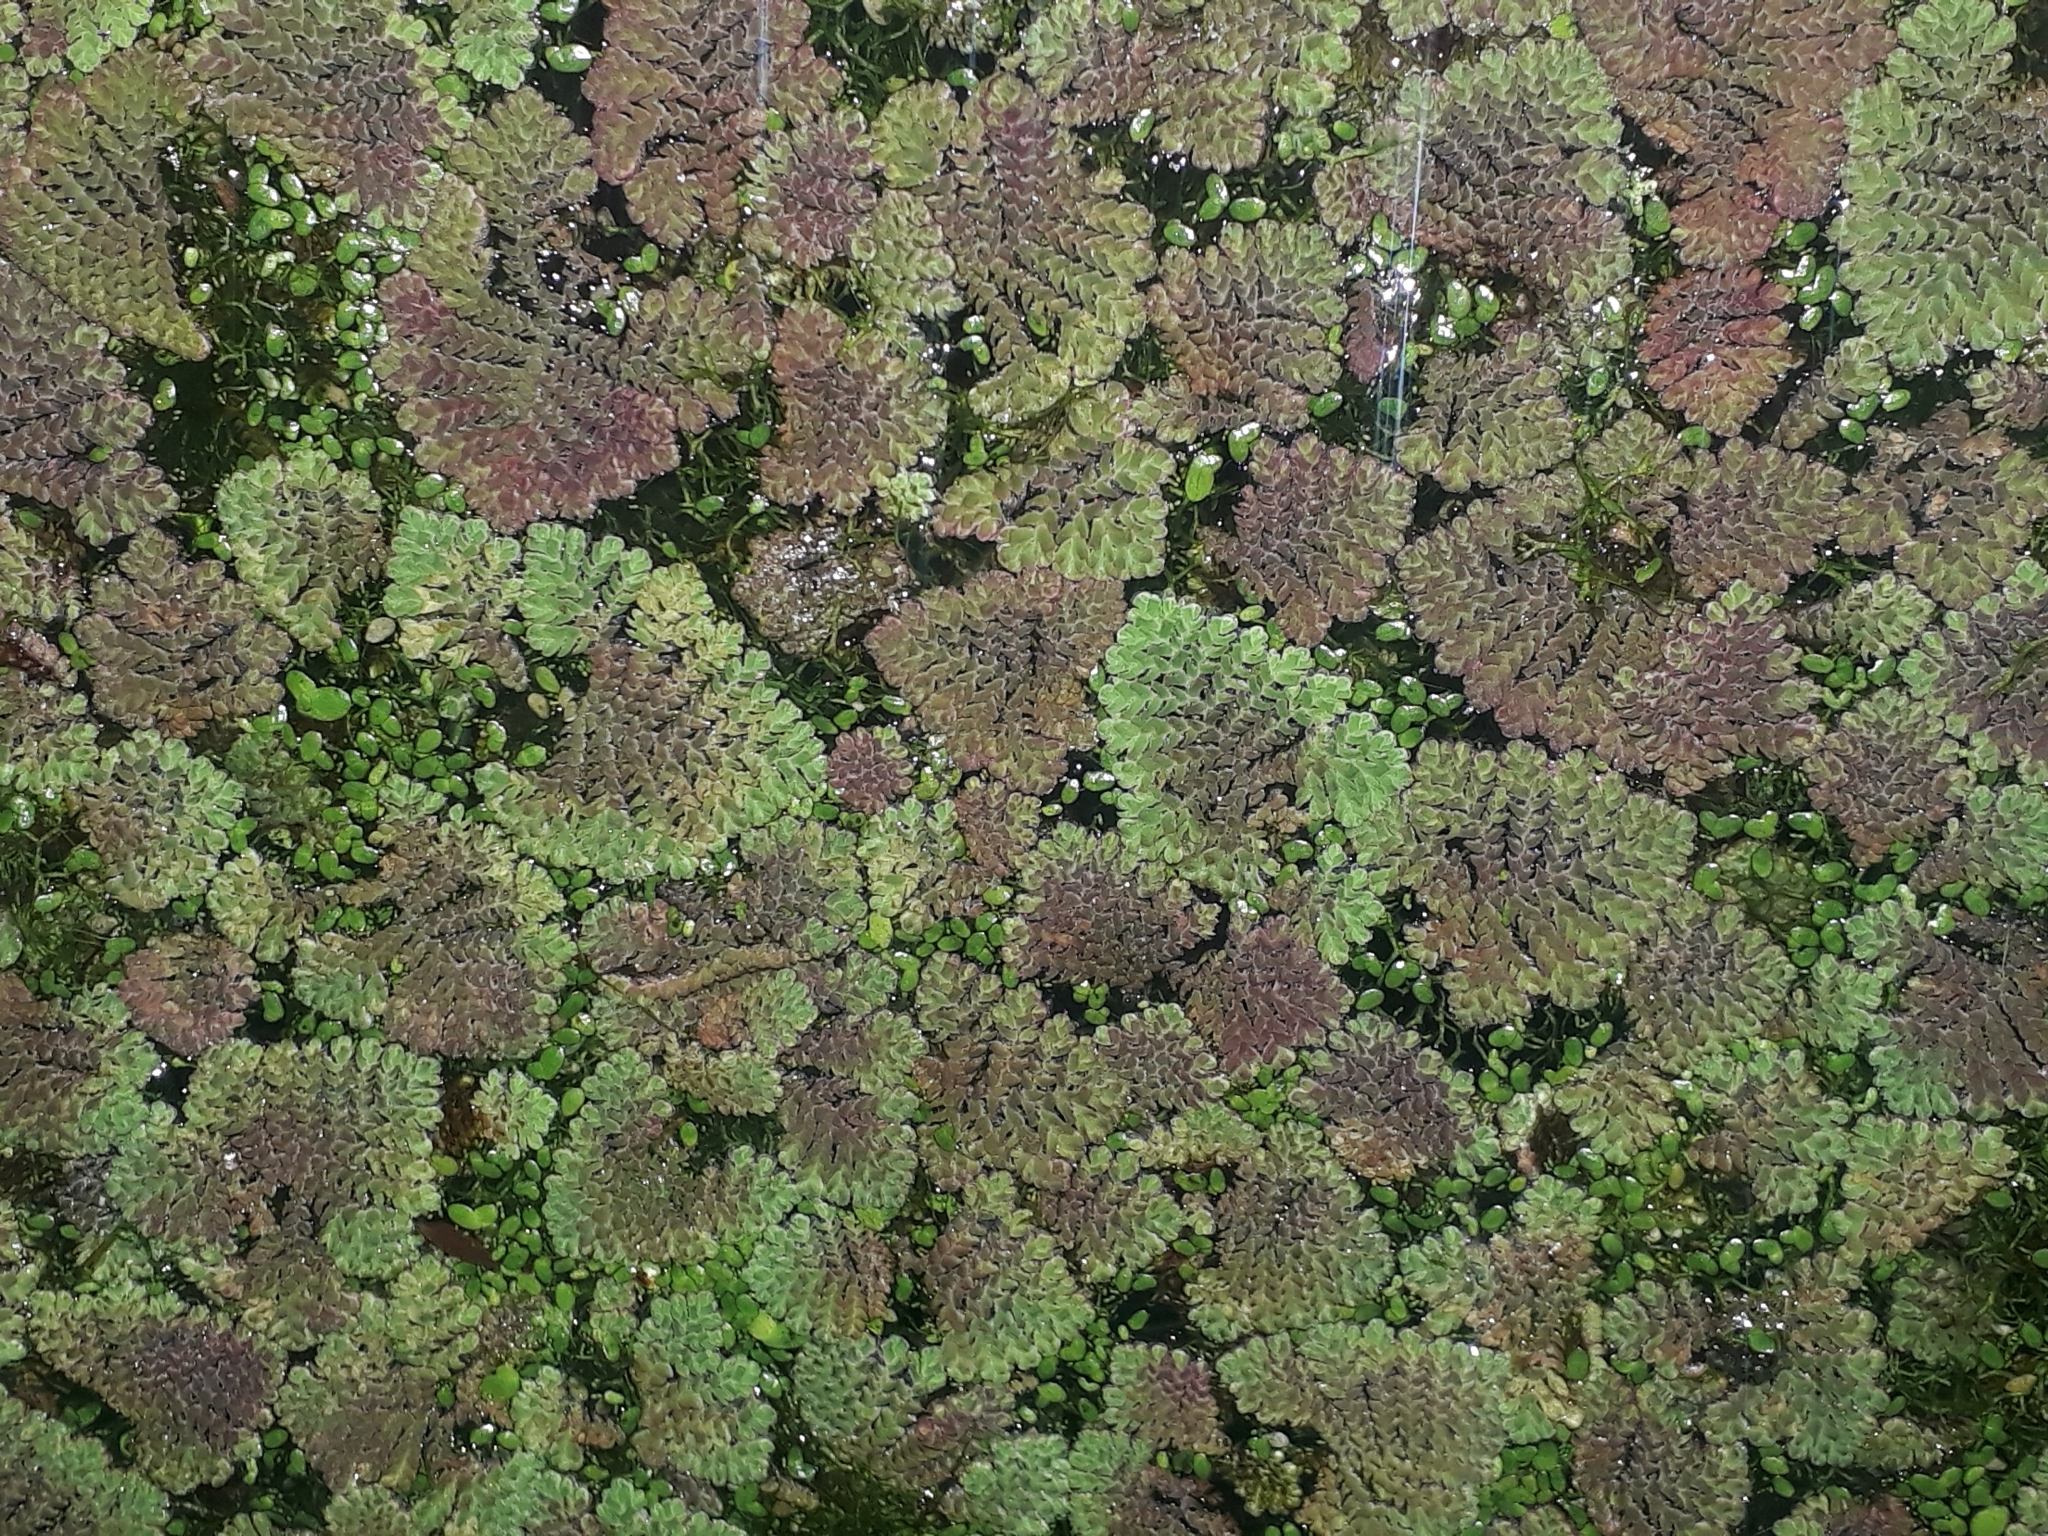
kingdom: Plantae
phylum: Tracheophyta
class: Polypodiopsida
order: Salviniales
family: Salviniaceae
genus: Azolla
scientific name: Azolla pinnata
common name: Ferny azolla
